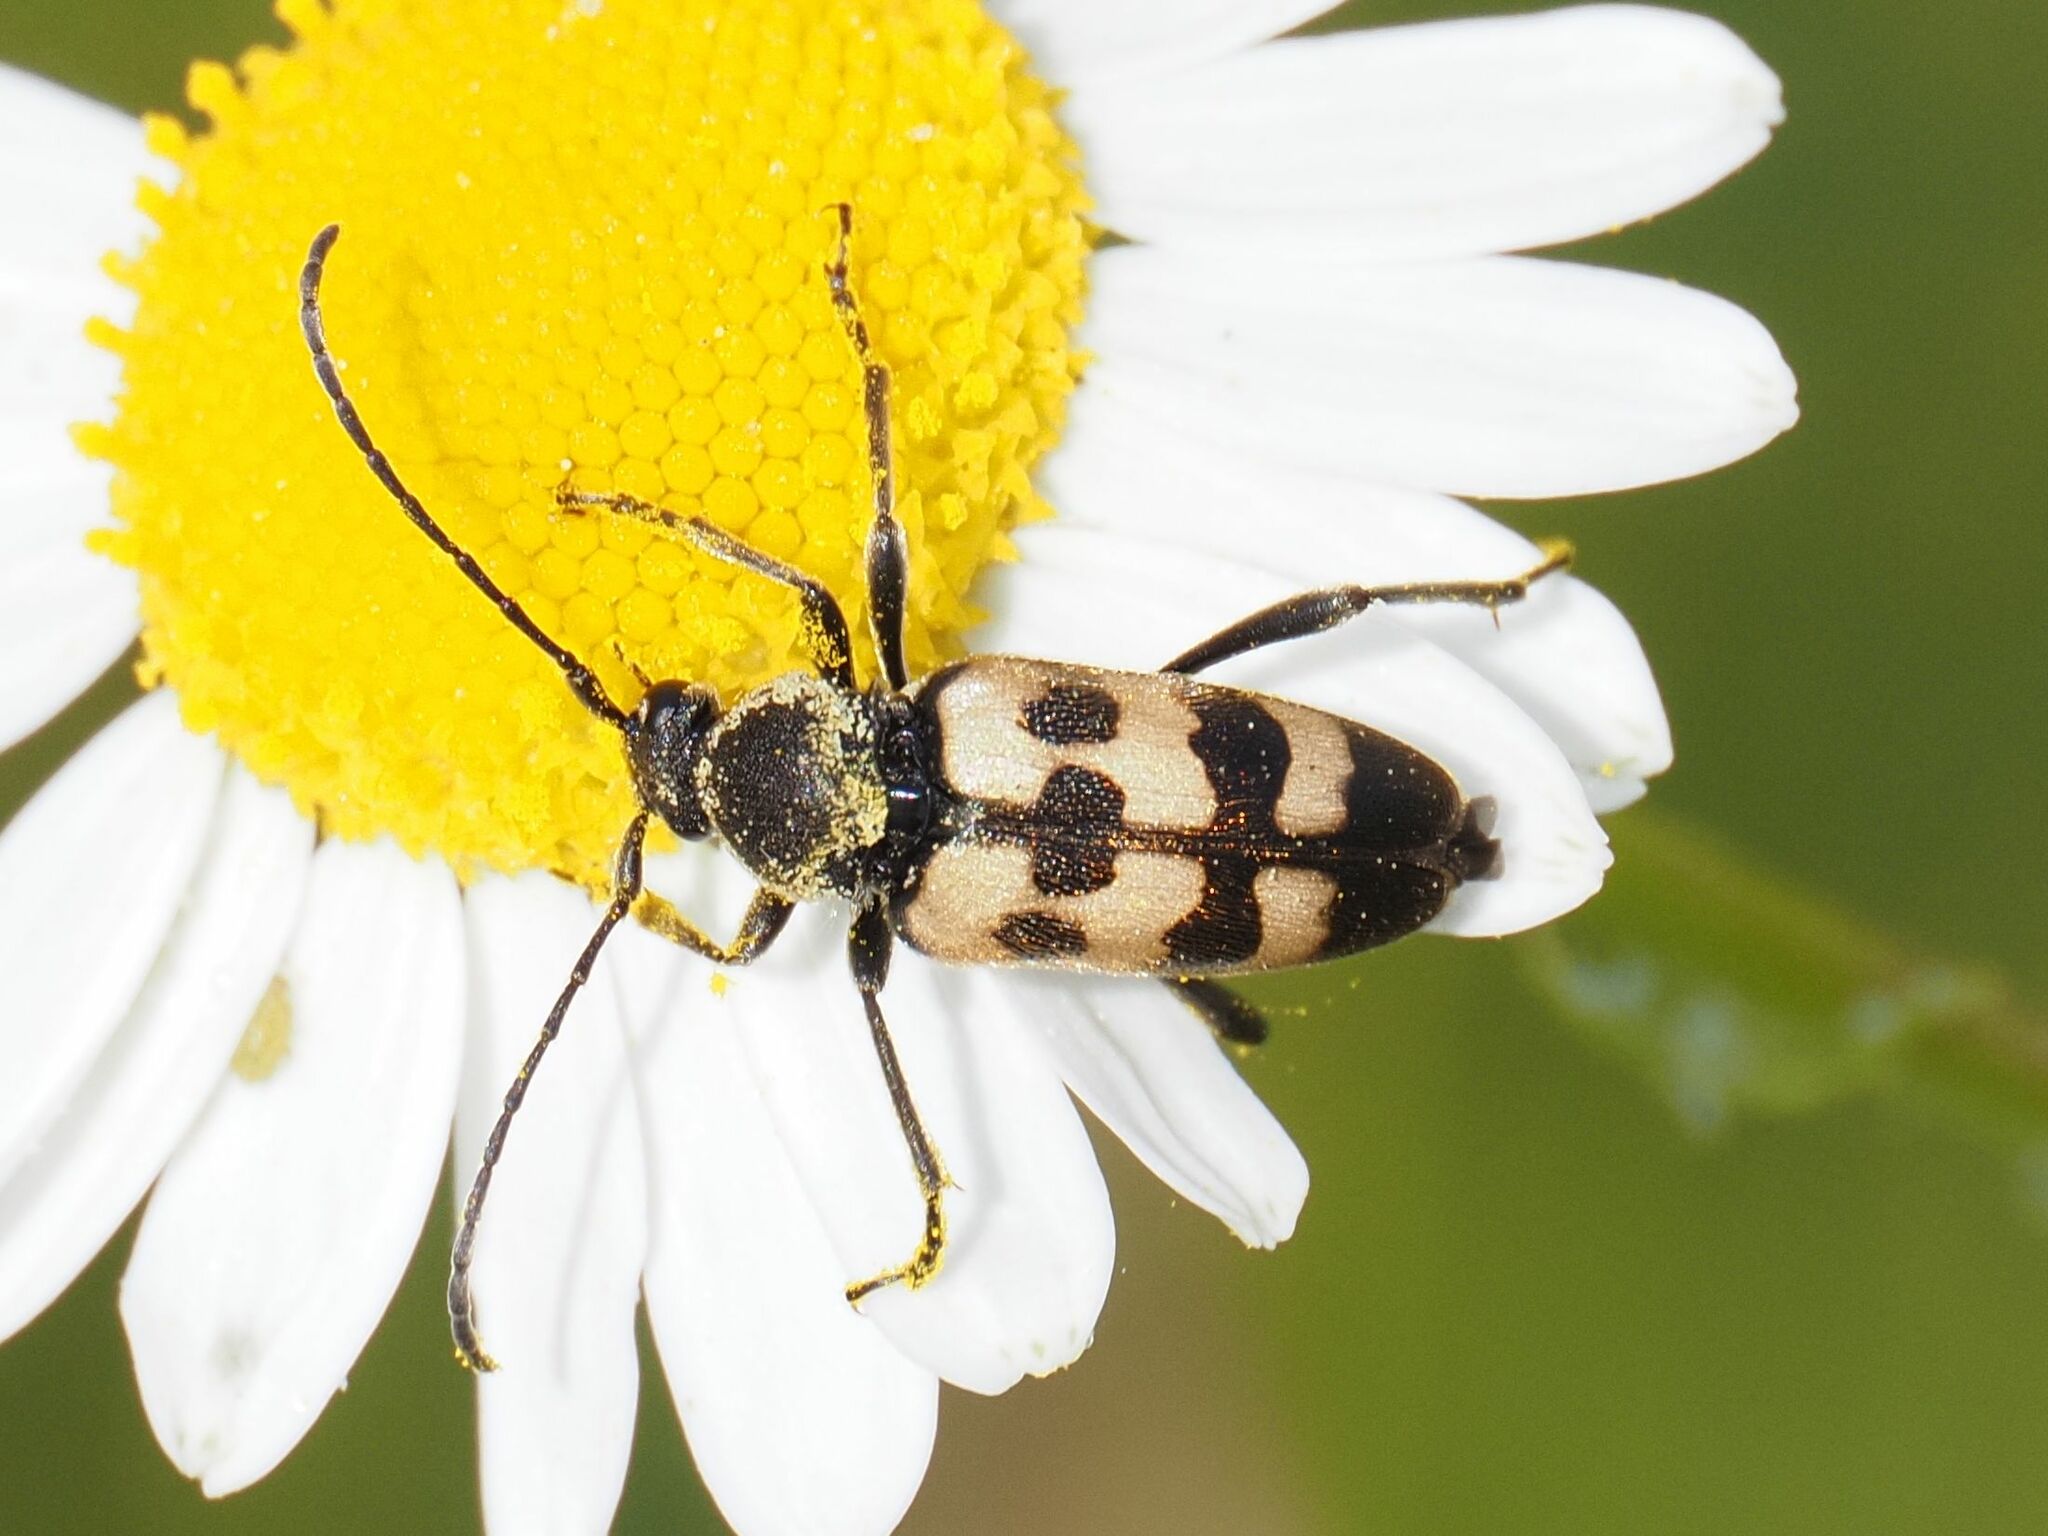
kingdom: Animalia
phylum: Arthropoda
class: Insecta
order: Coleoptera
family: Cerambycidae
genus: Pachytodes
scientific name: Pachytodes
